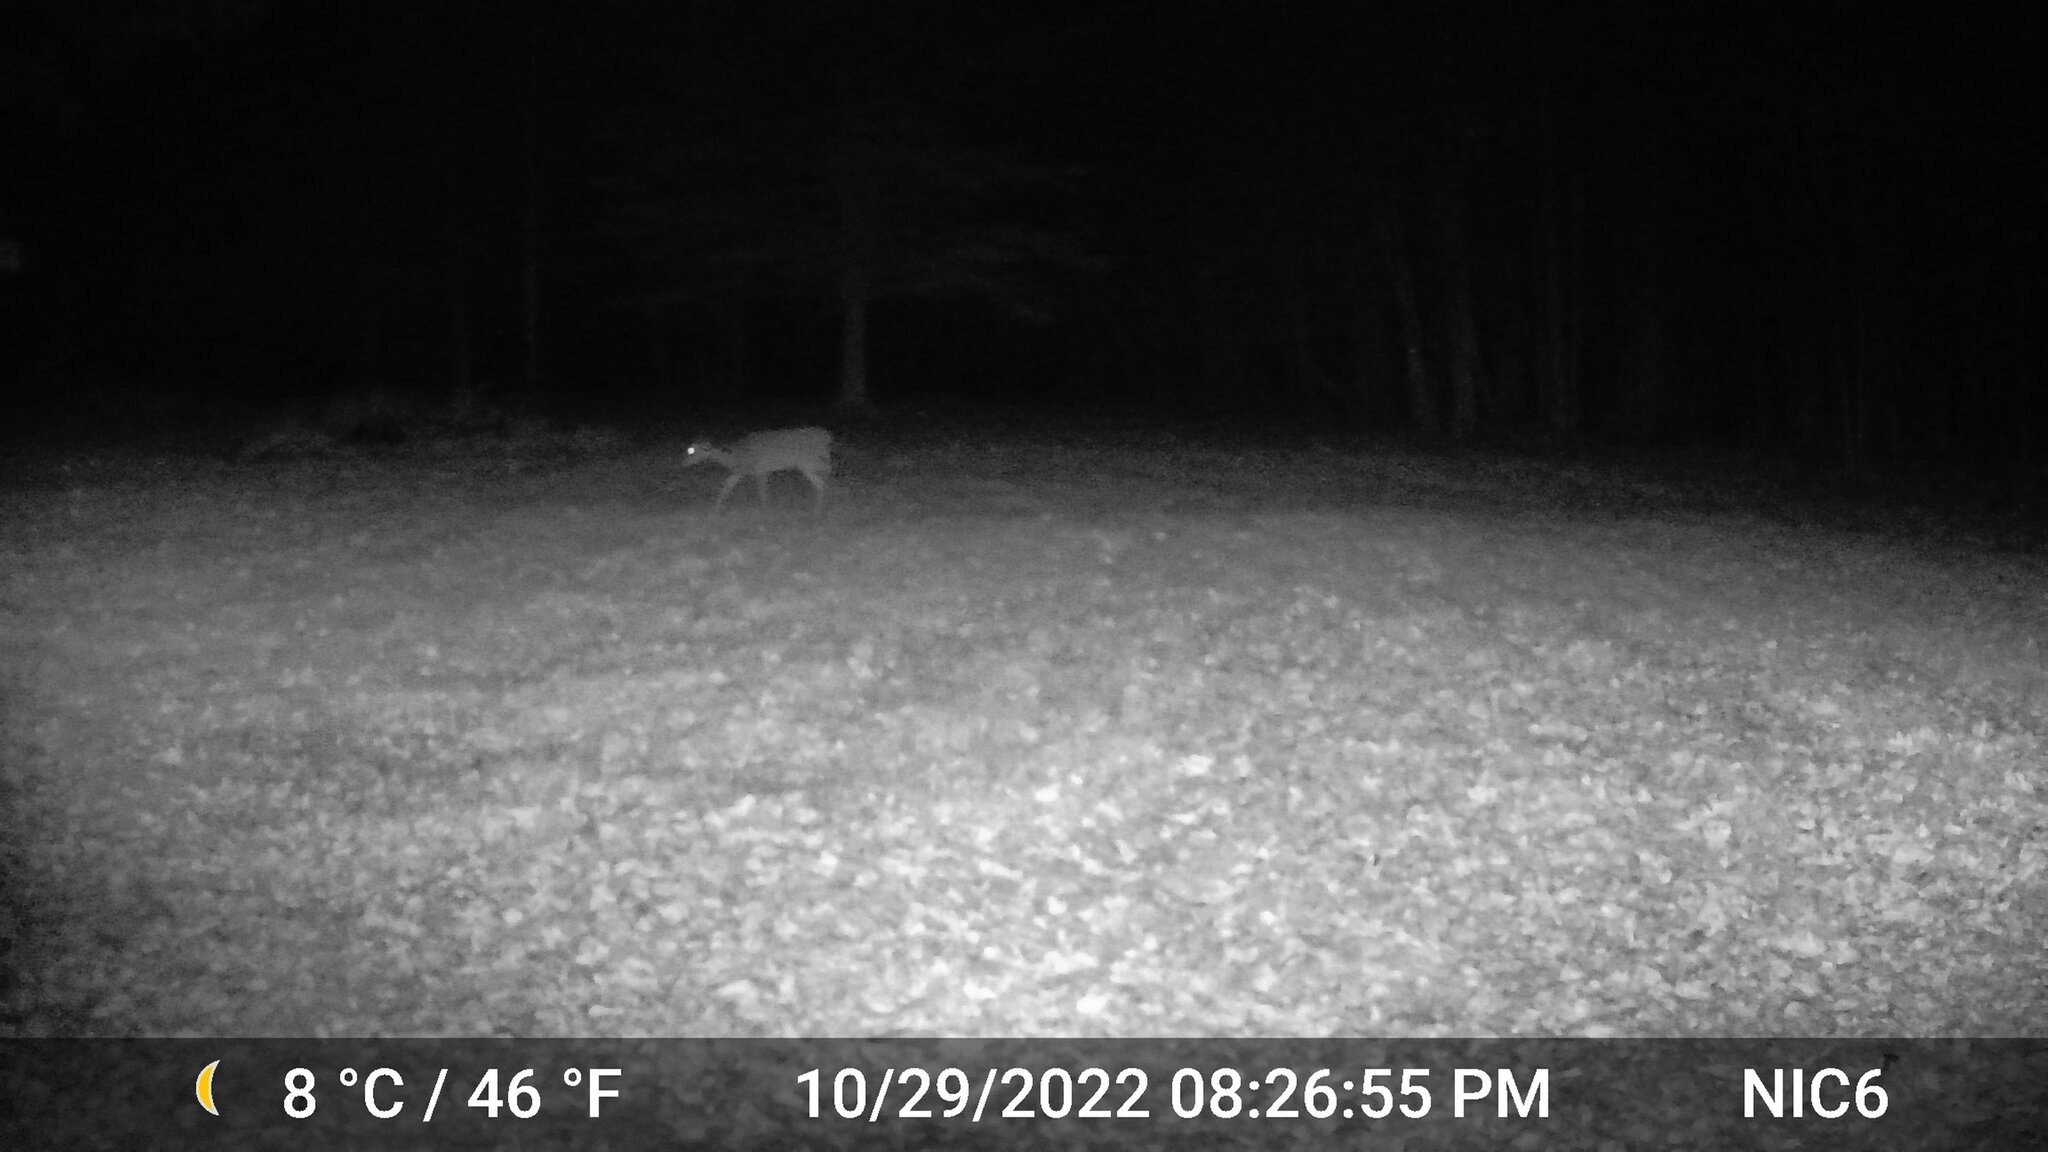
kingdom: Animalia
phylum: Chordata
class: Mammalia
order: Artiodactyla
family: Cervidae
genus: Odocoileus
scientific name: Odocoileus virginianus
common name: White-tailed deer
